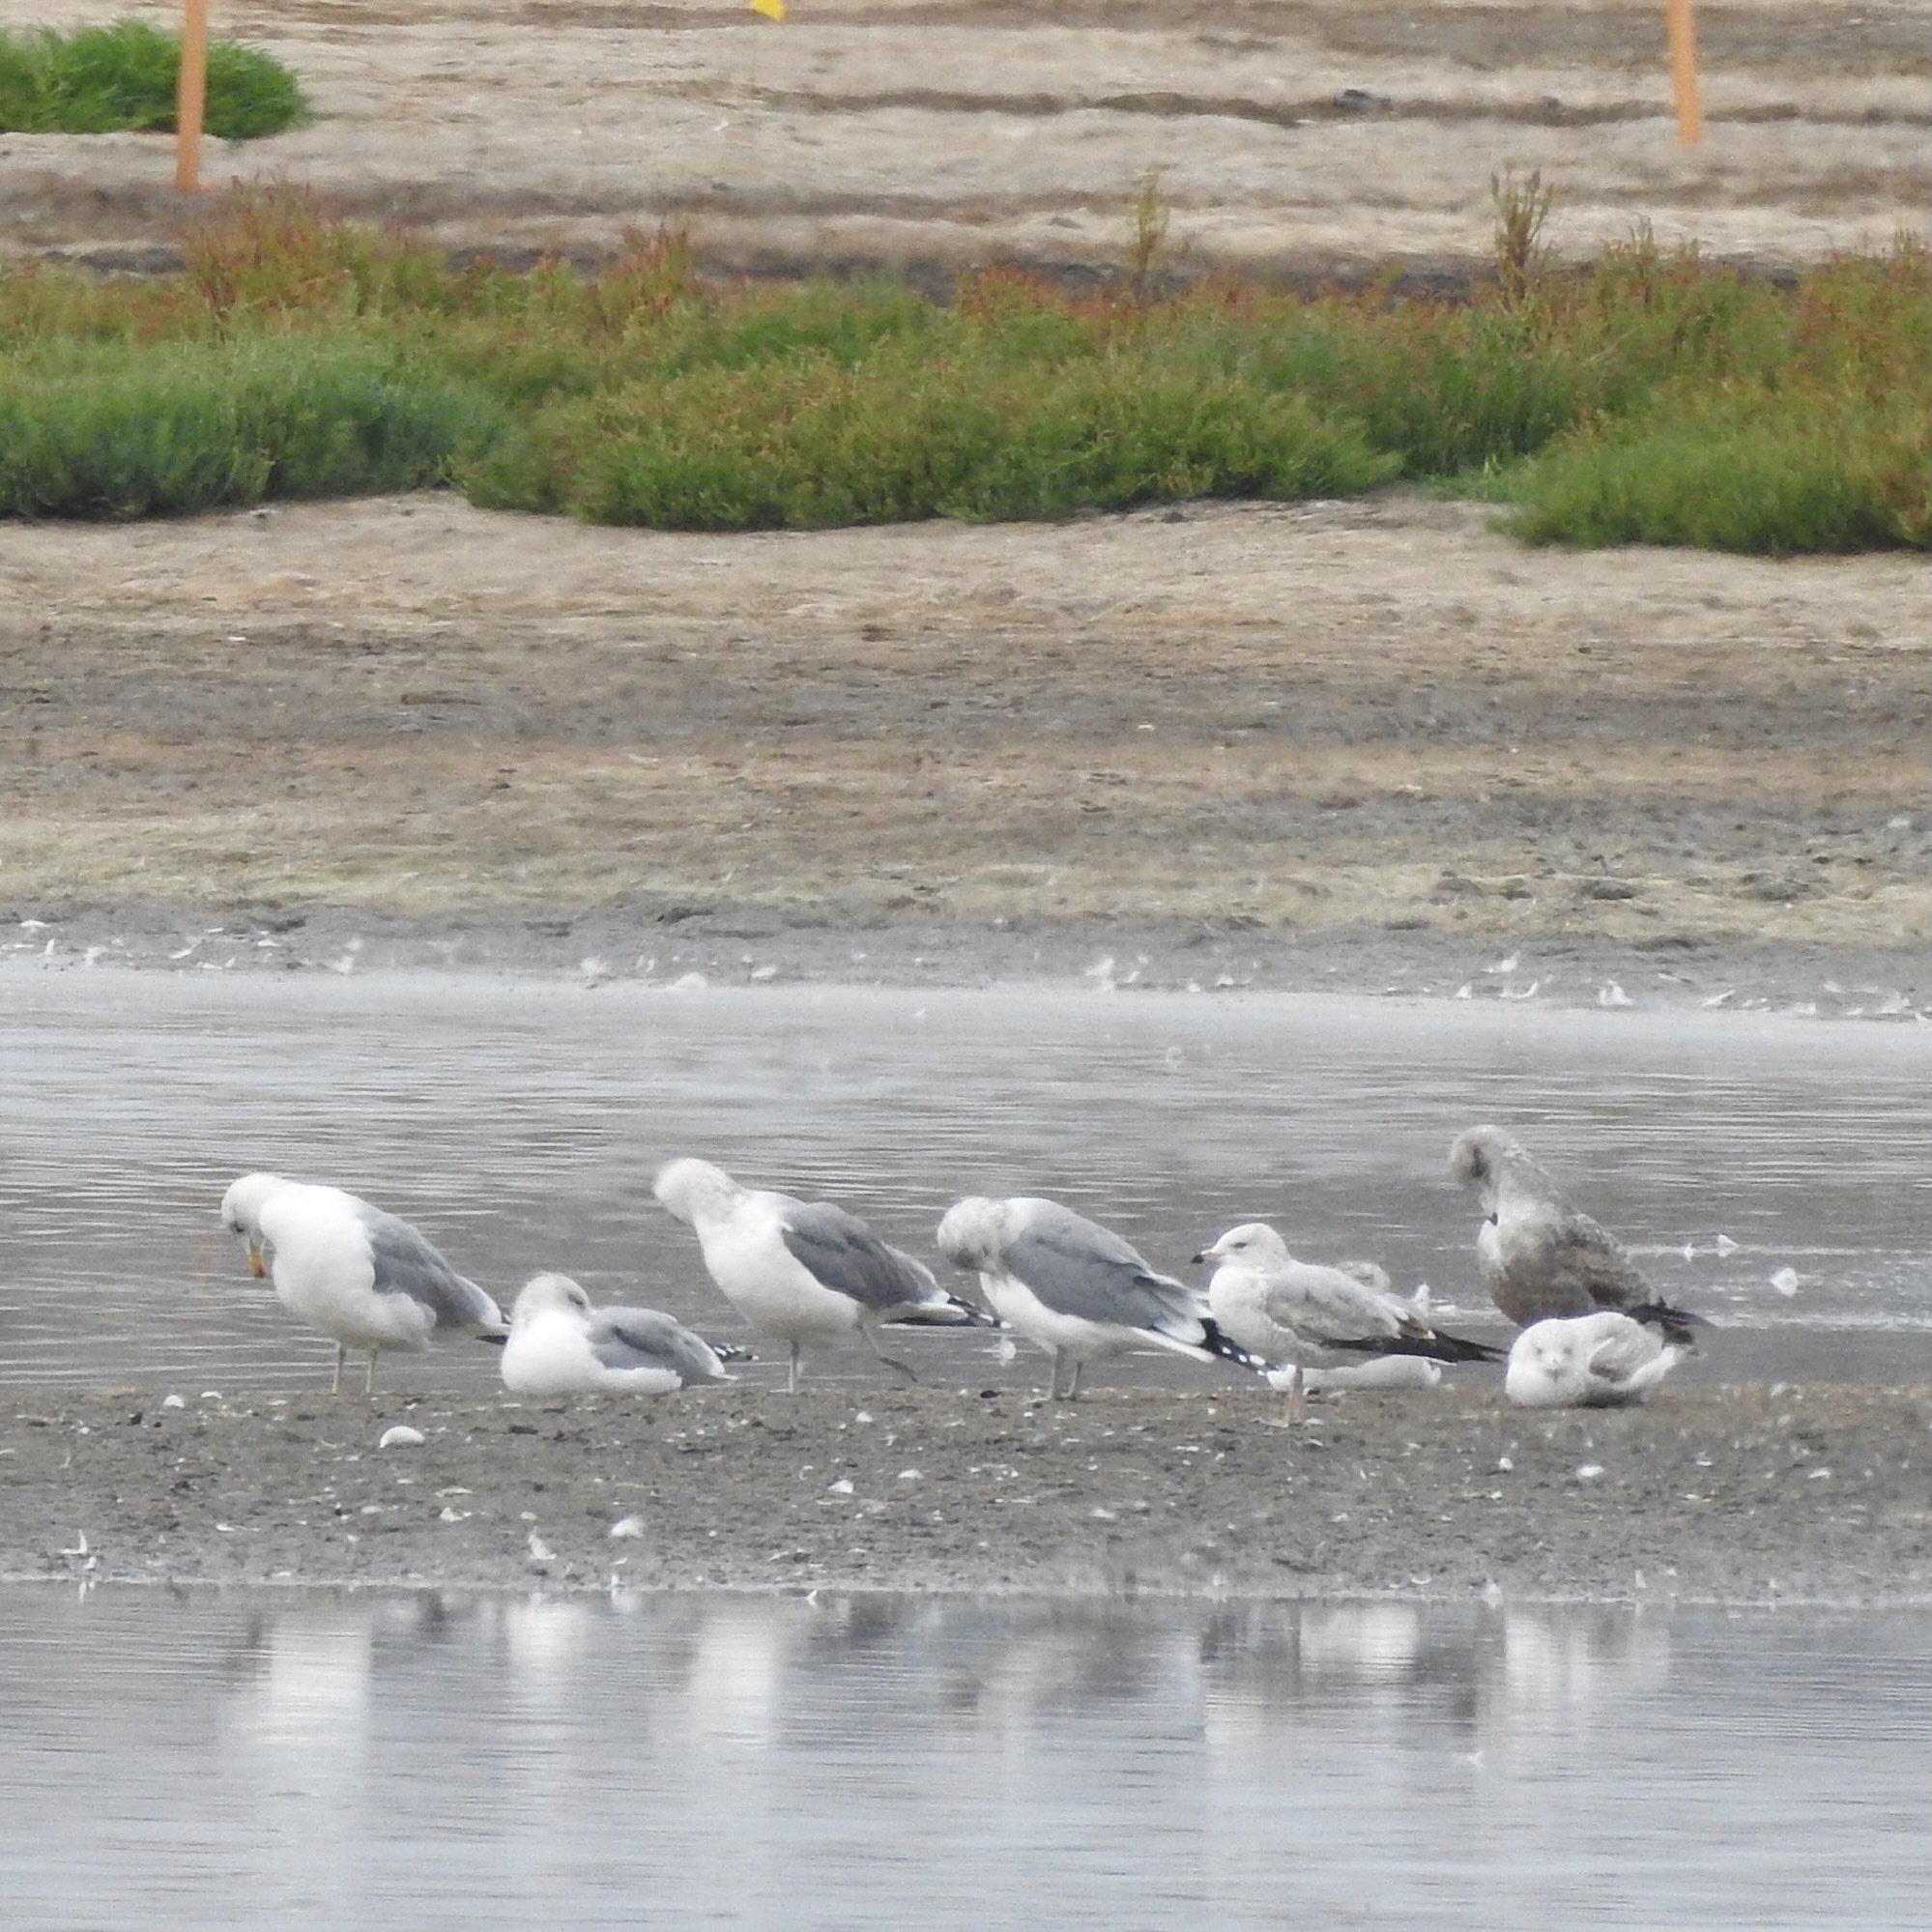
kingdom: Animalia
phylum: Chordata
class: Aves
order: Charadriiformes
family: Laridae
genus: Larus
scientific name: Larus delawarensis
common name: Ring-billed gull
